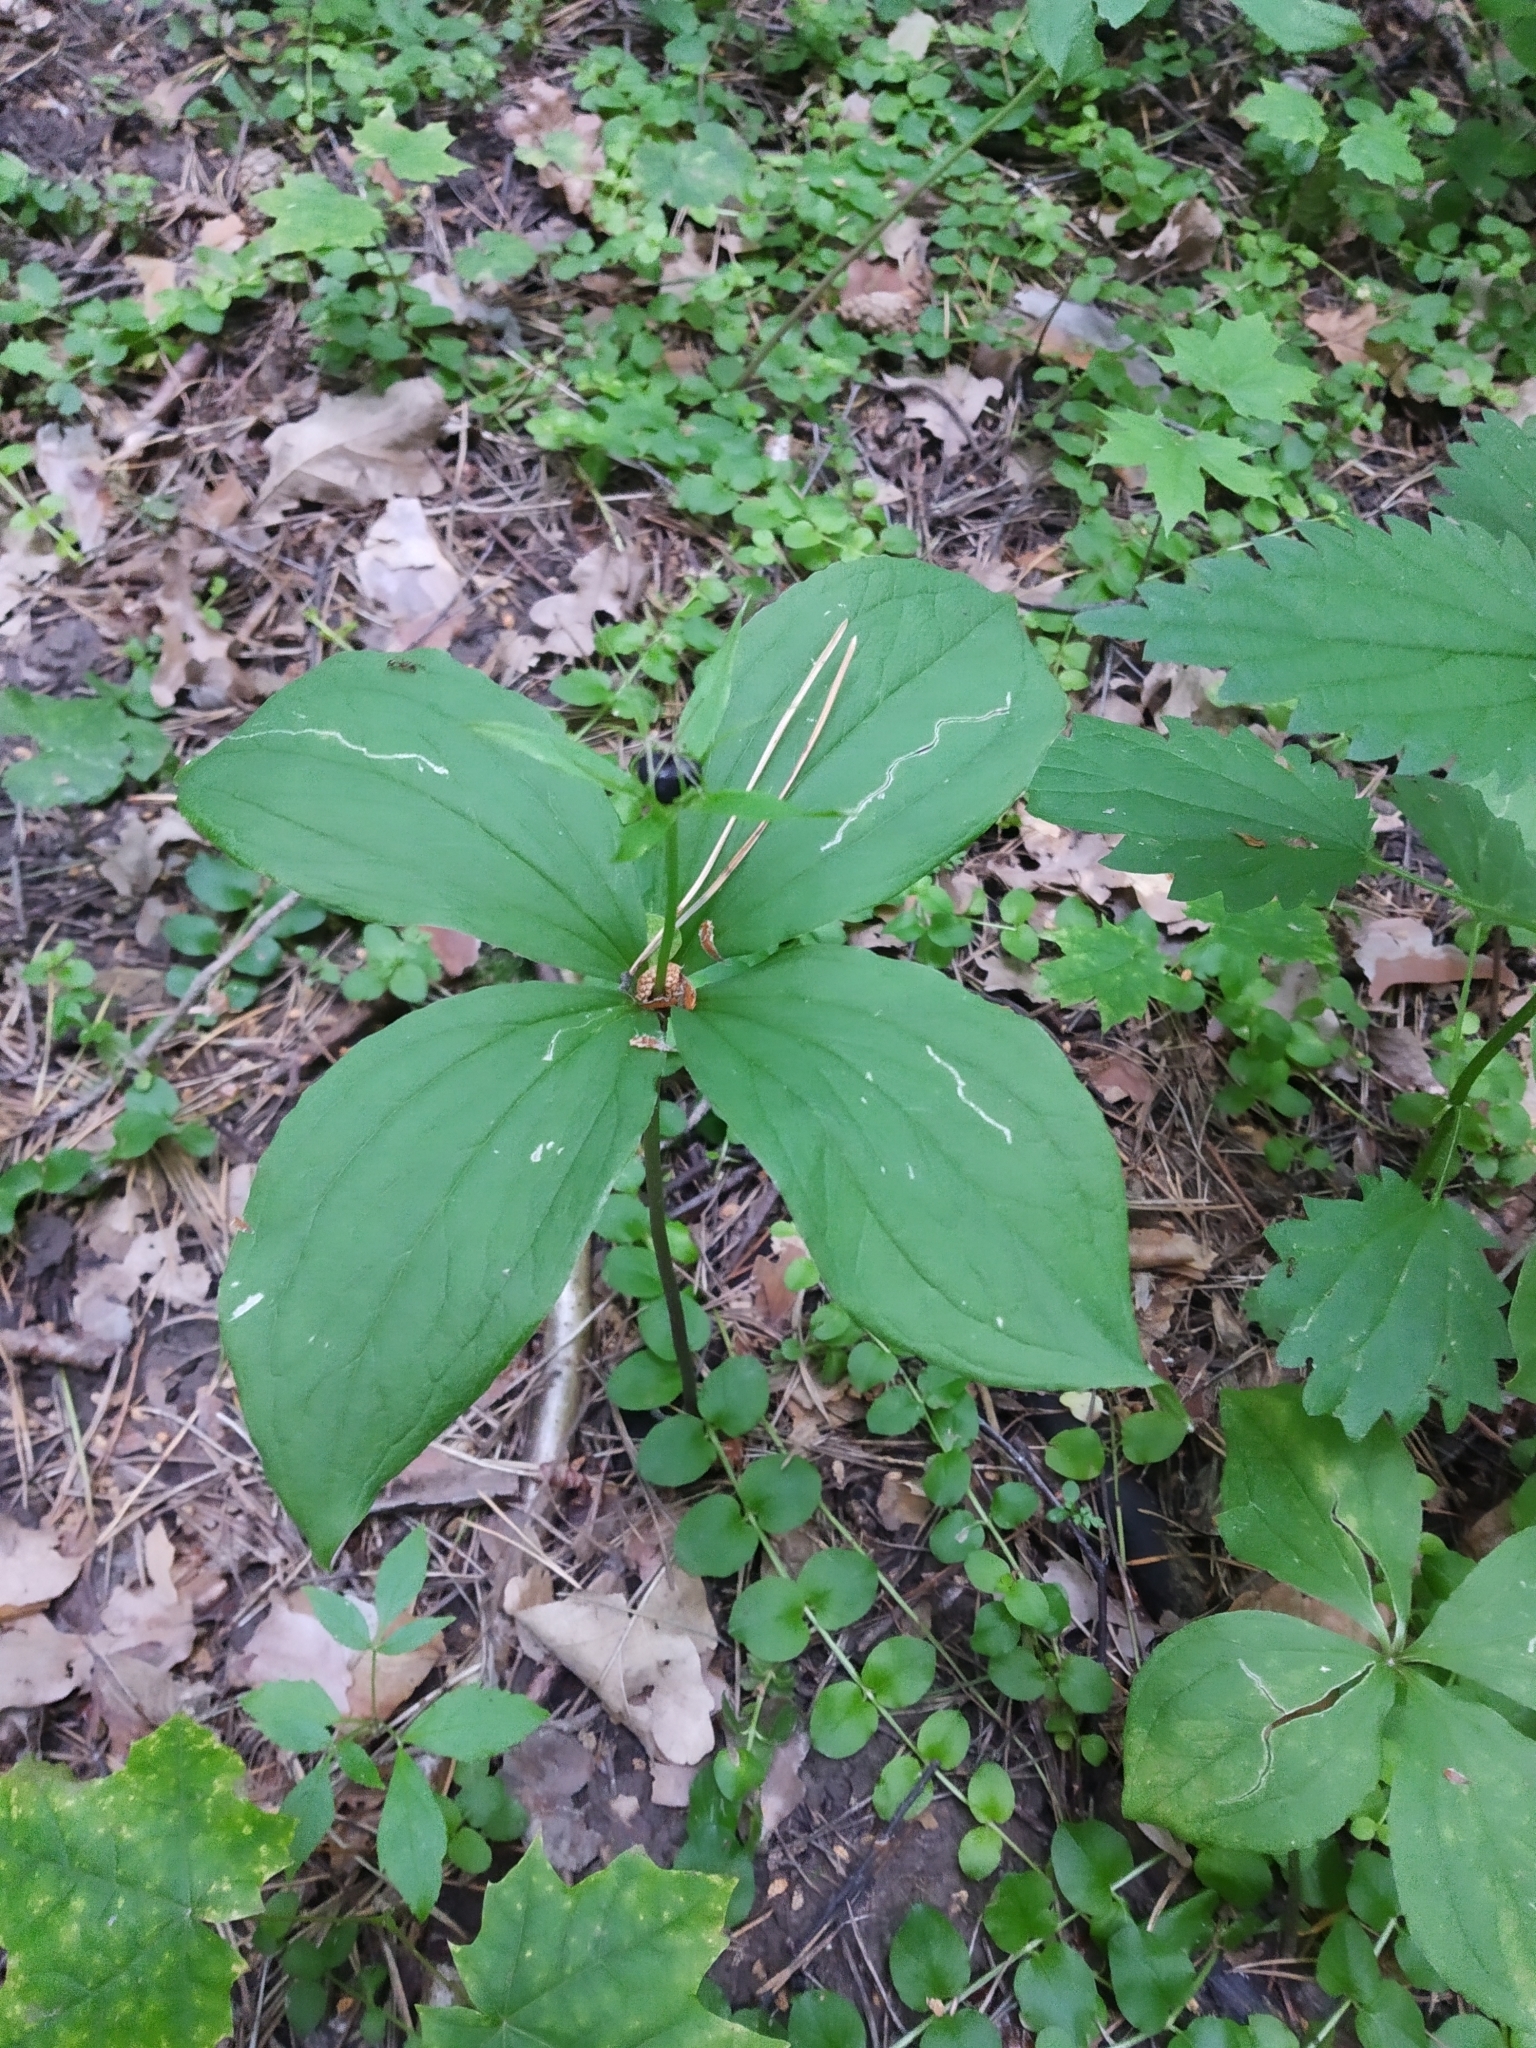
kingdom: Plantae
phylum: Tracheophyta
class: Liliopsida
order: Liliales
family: Melanthiaceae
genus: Paris
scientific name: Paris quadrifolia
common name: Herb-paris
